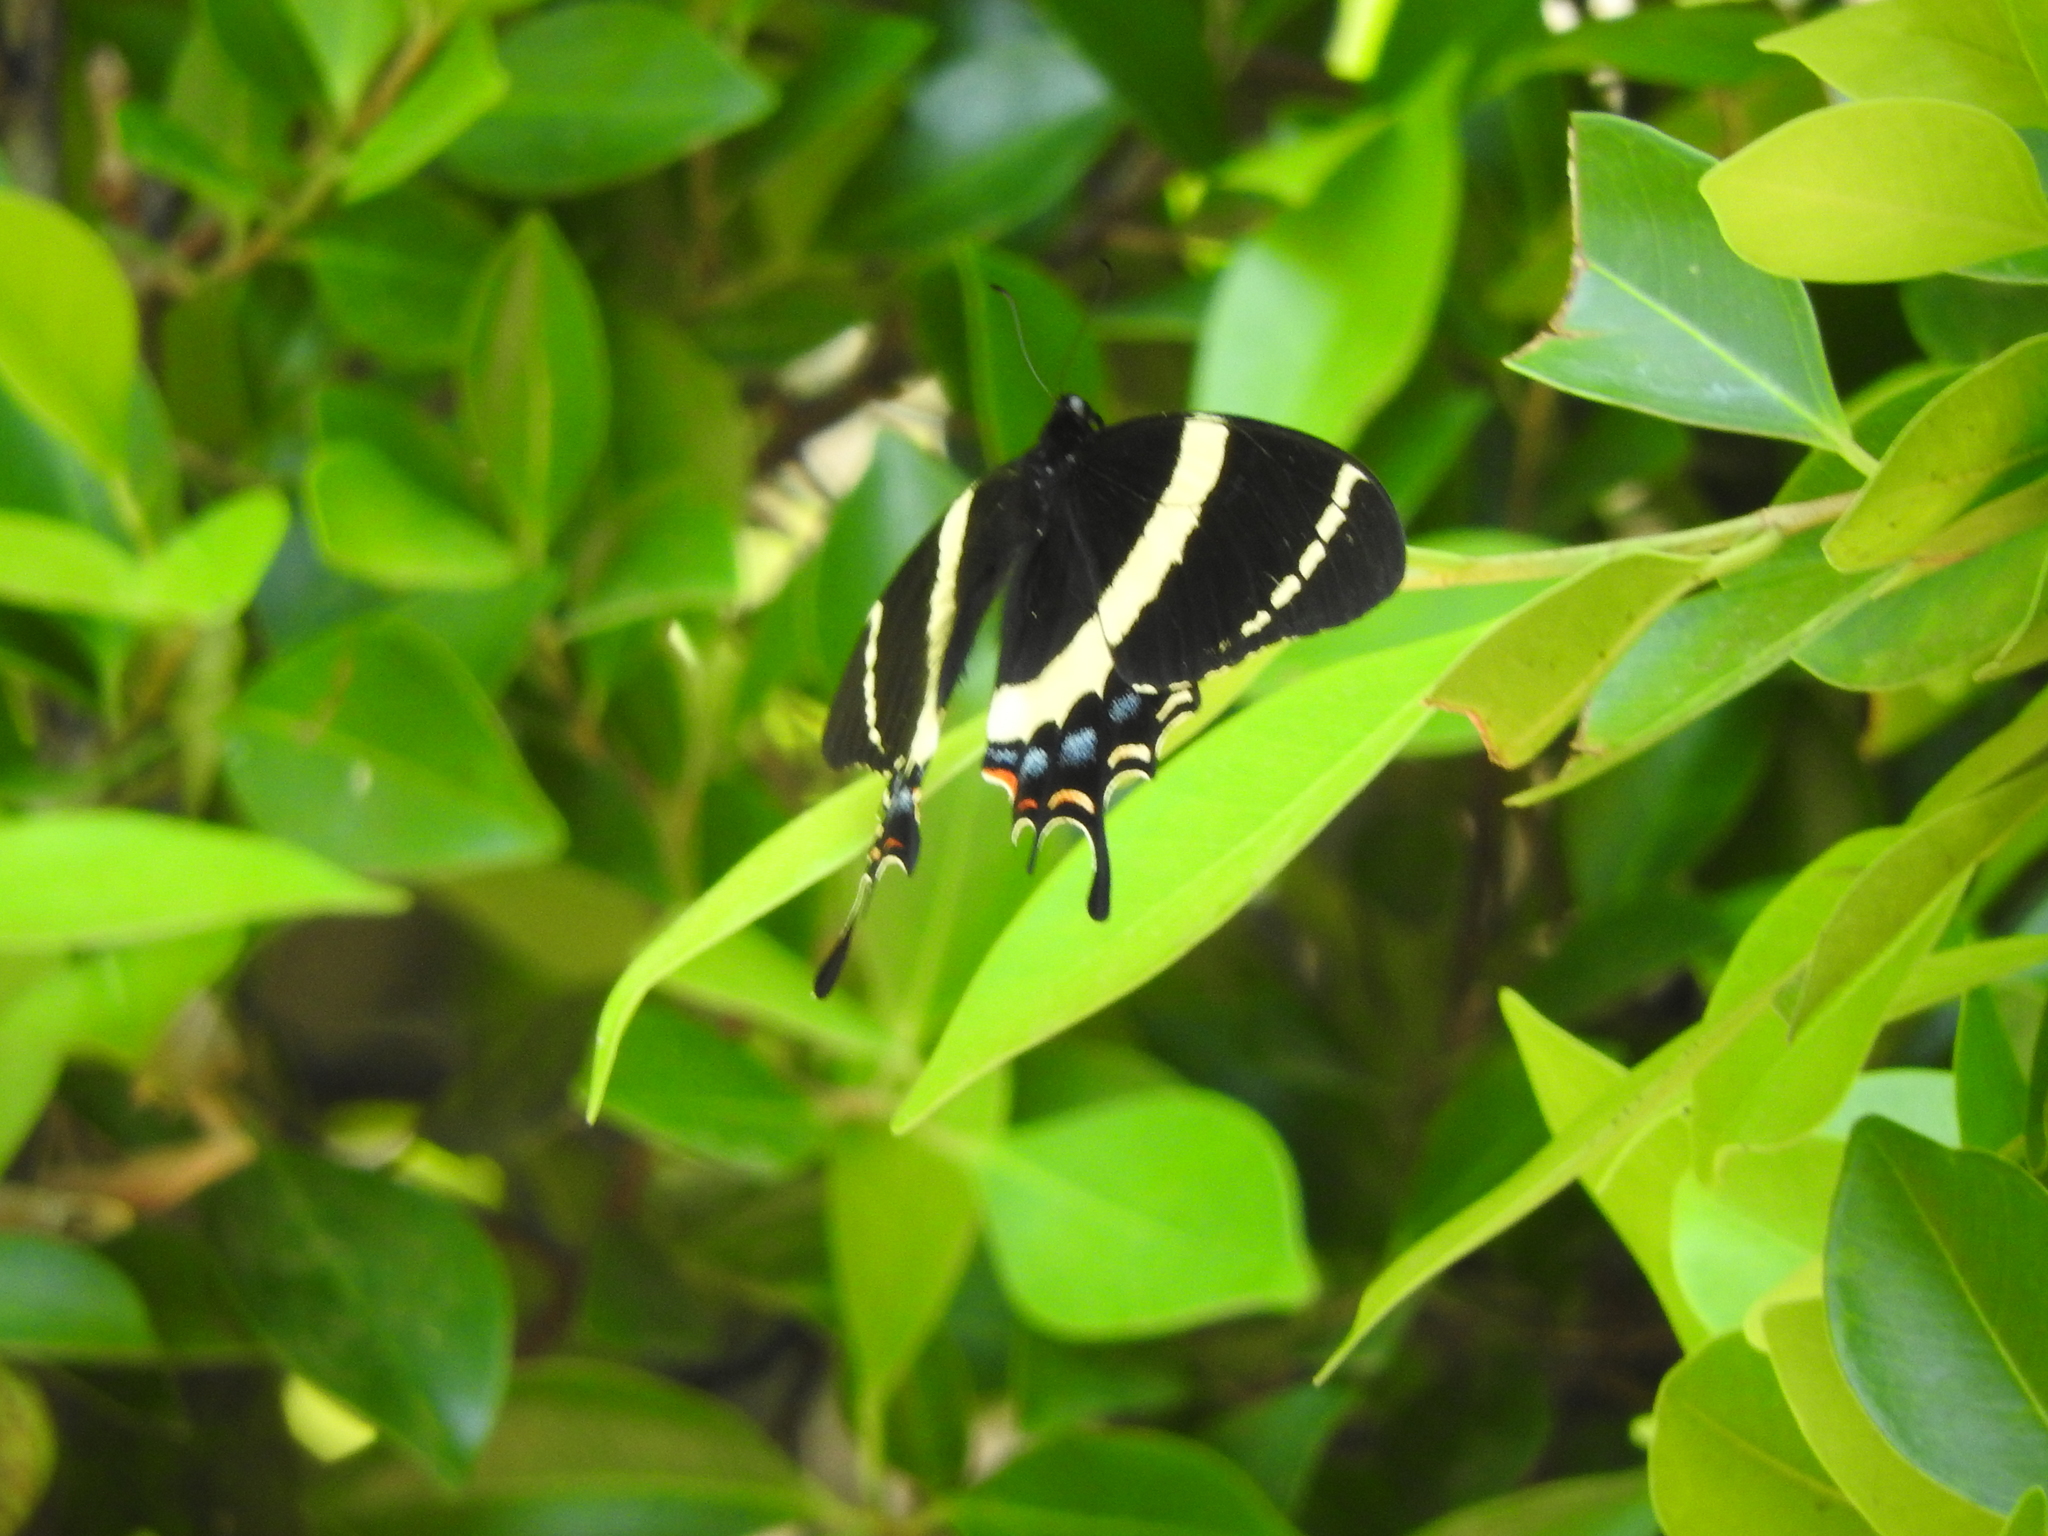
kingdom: Animalia
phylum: Arthropoda
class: Insecta
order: Lepidoptera
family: Papilionidae
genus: Papilio
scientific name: Papilio garamas
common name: Magnificent swallowtail
